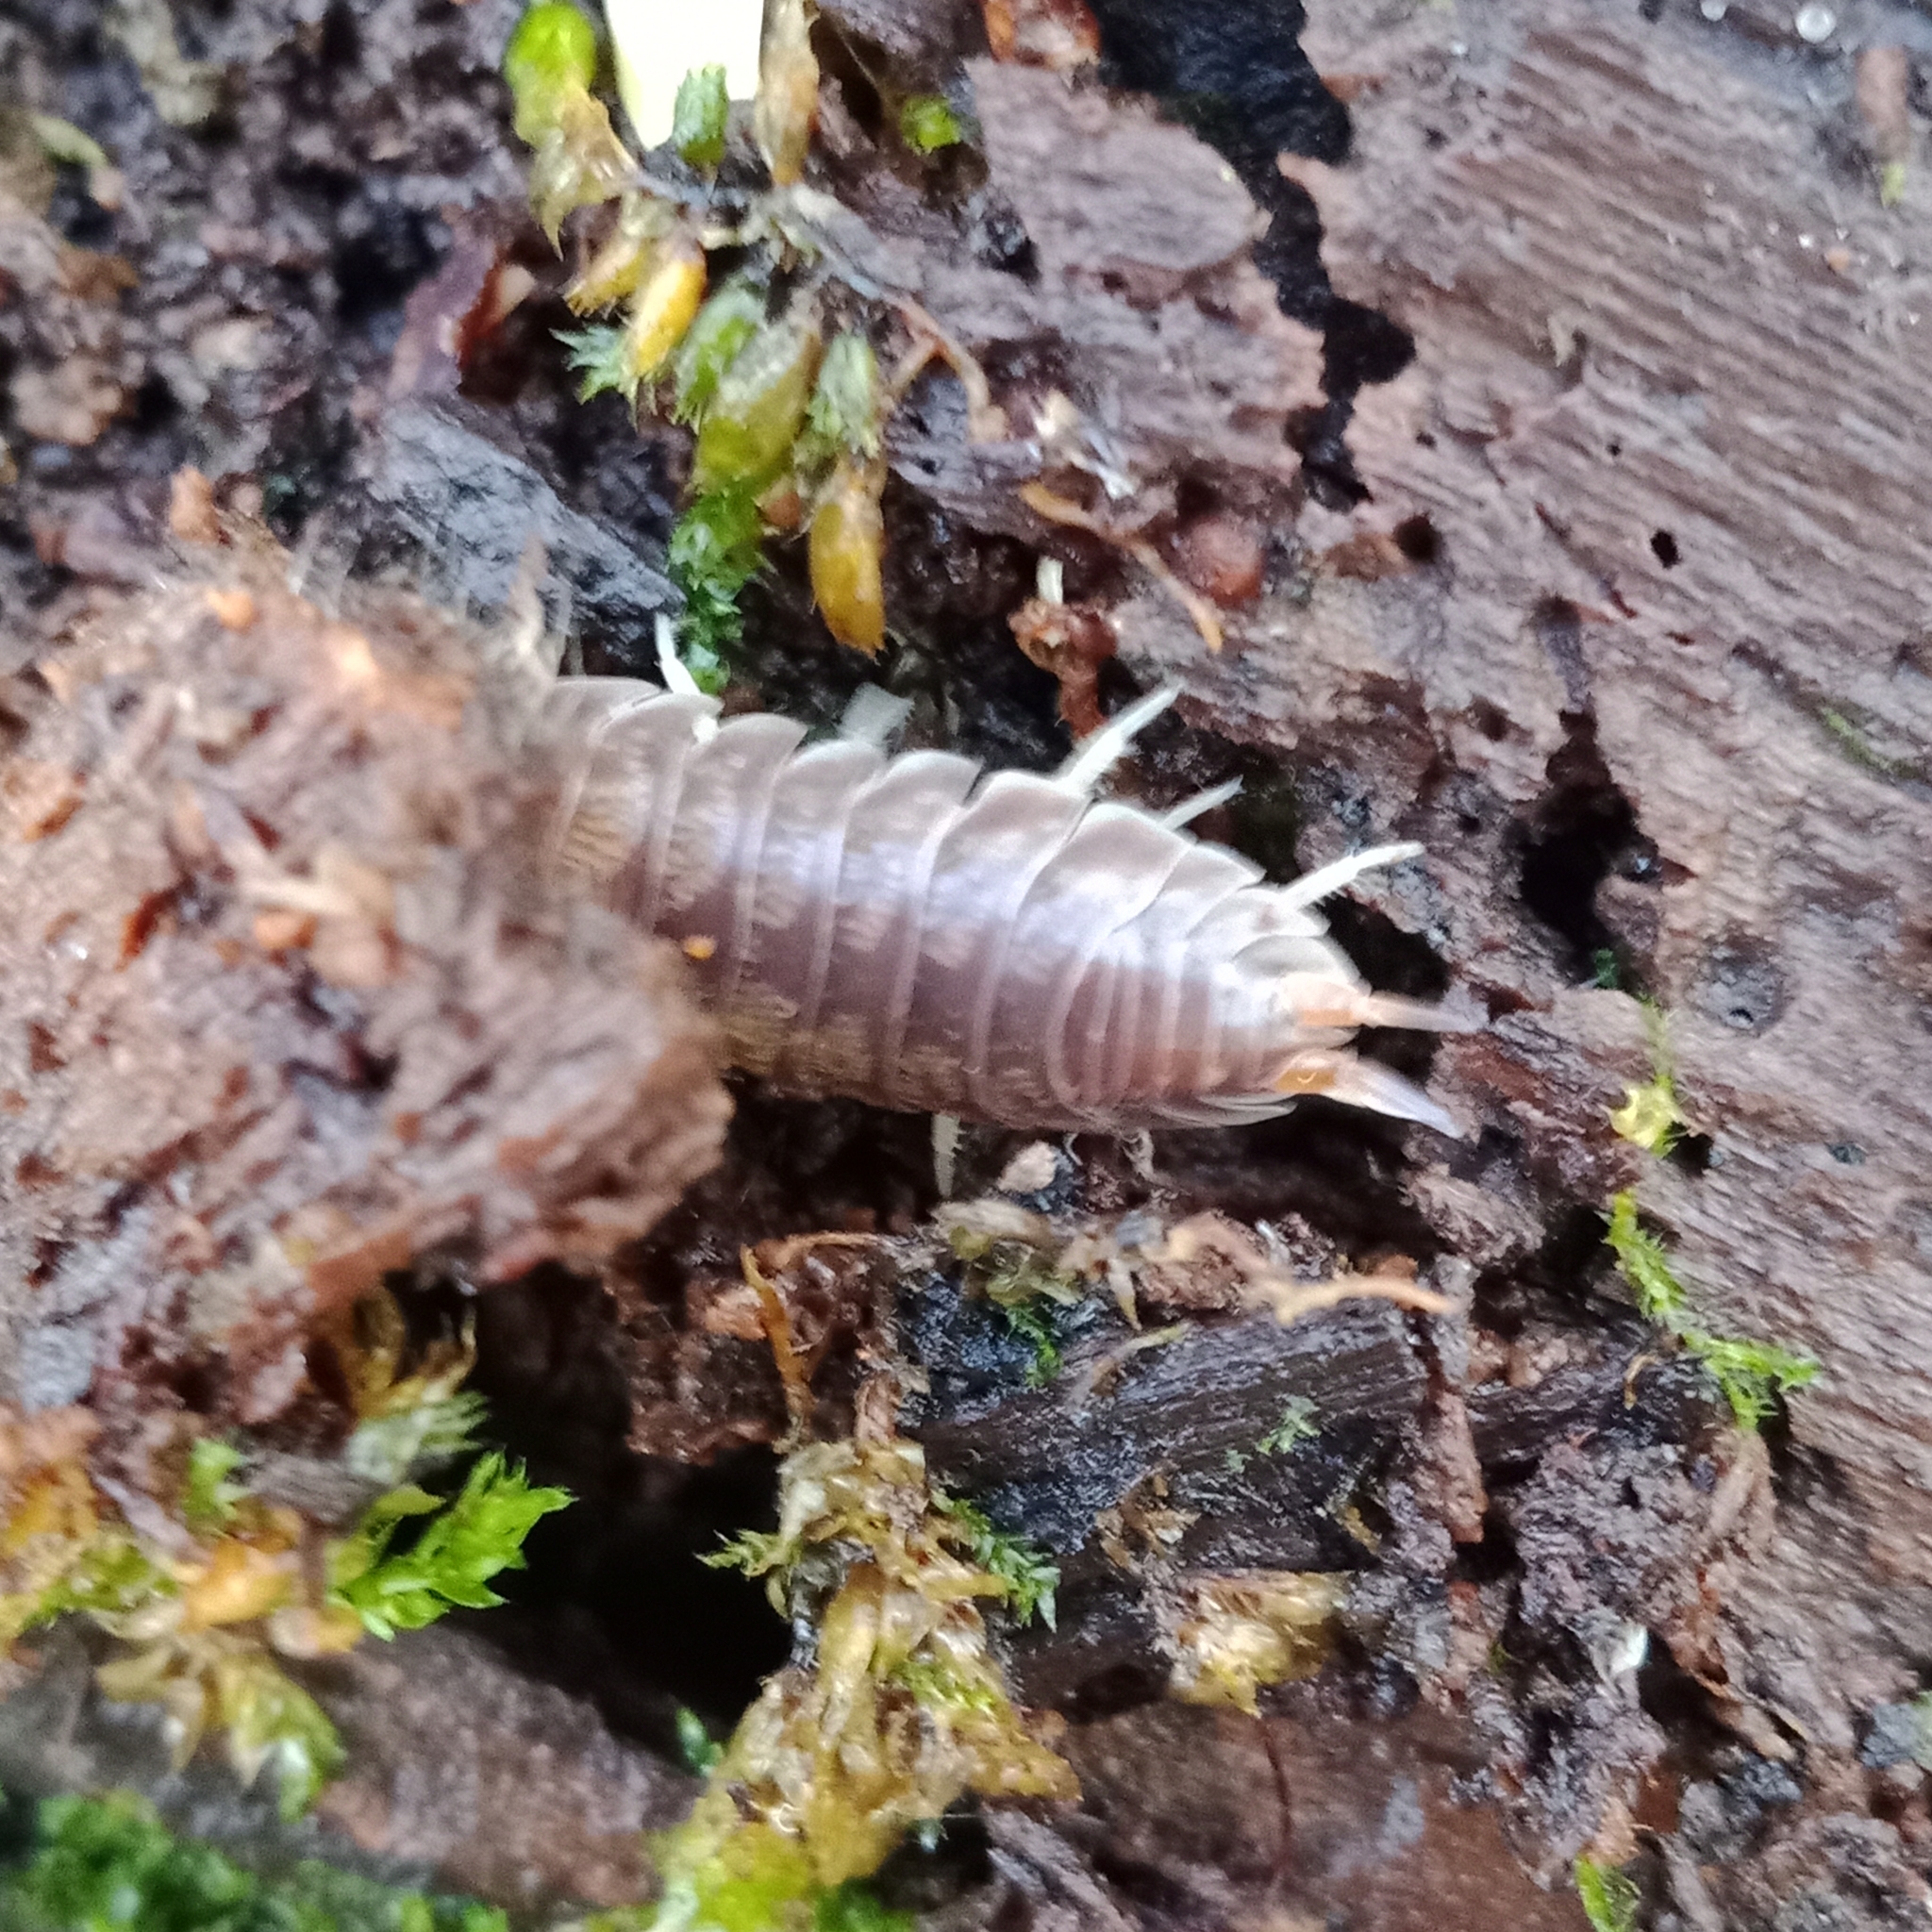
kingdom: Animalia
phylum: Arthropoda
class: Malacostraca
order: Isopoda
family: Cylisticidae
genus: Cylisticus
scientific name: Cylisticus convexus
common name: Curly woodlouse
